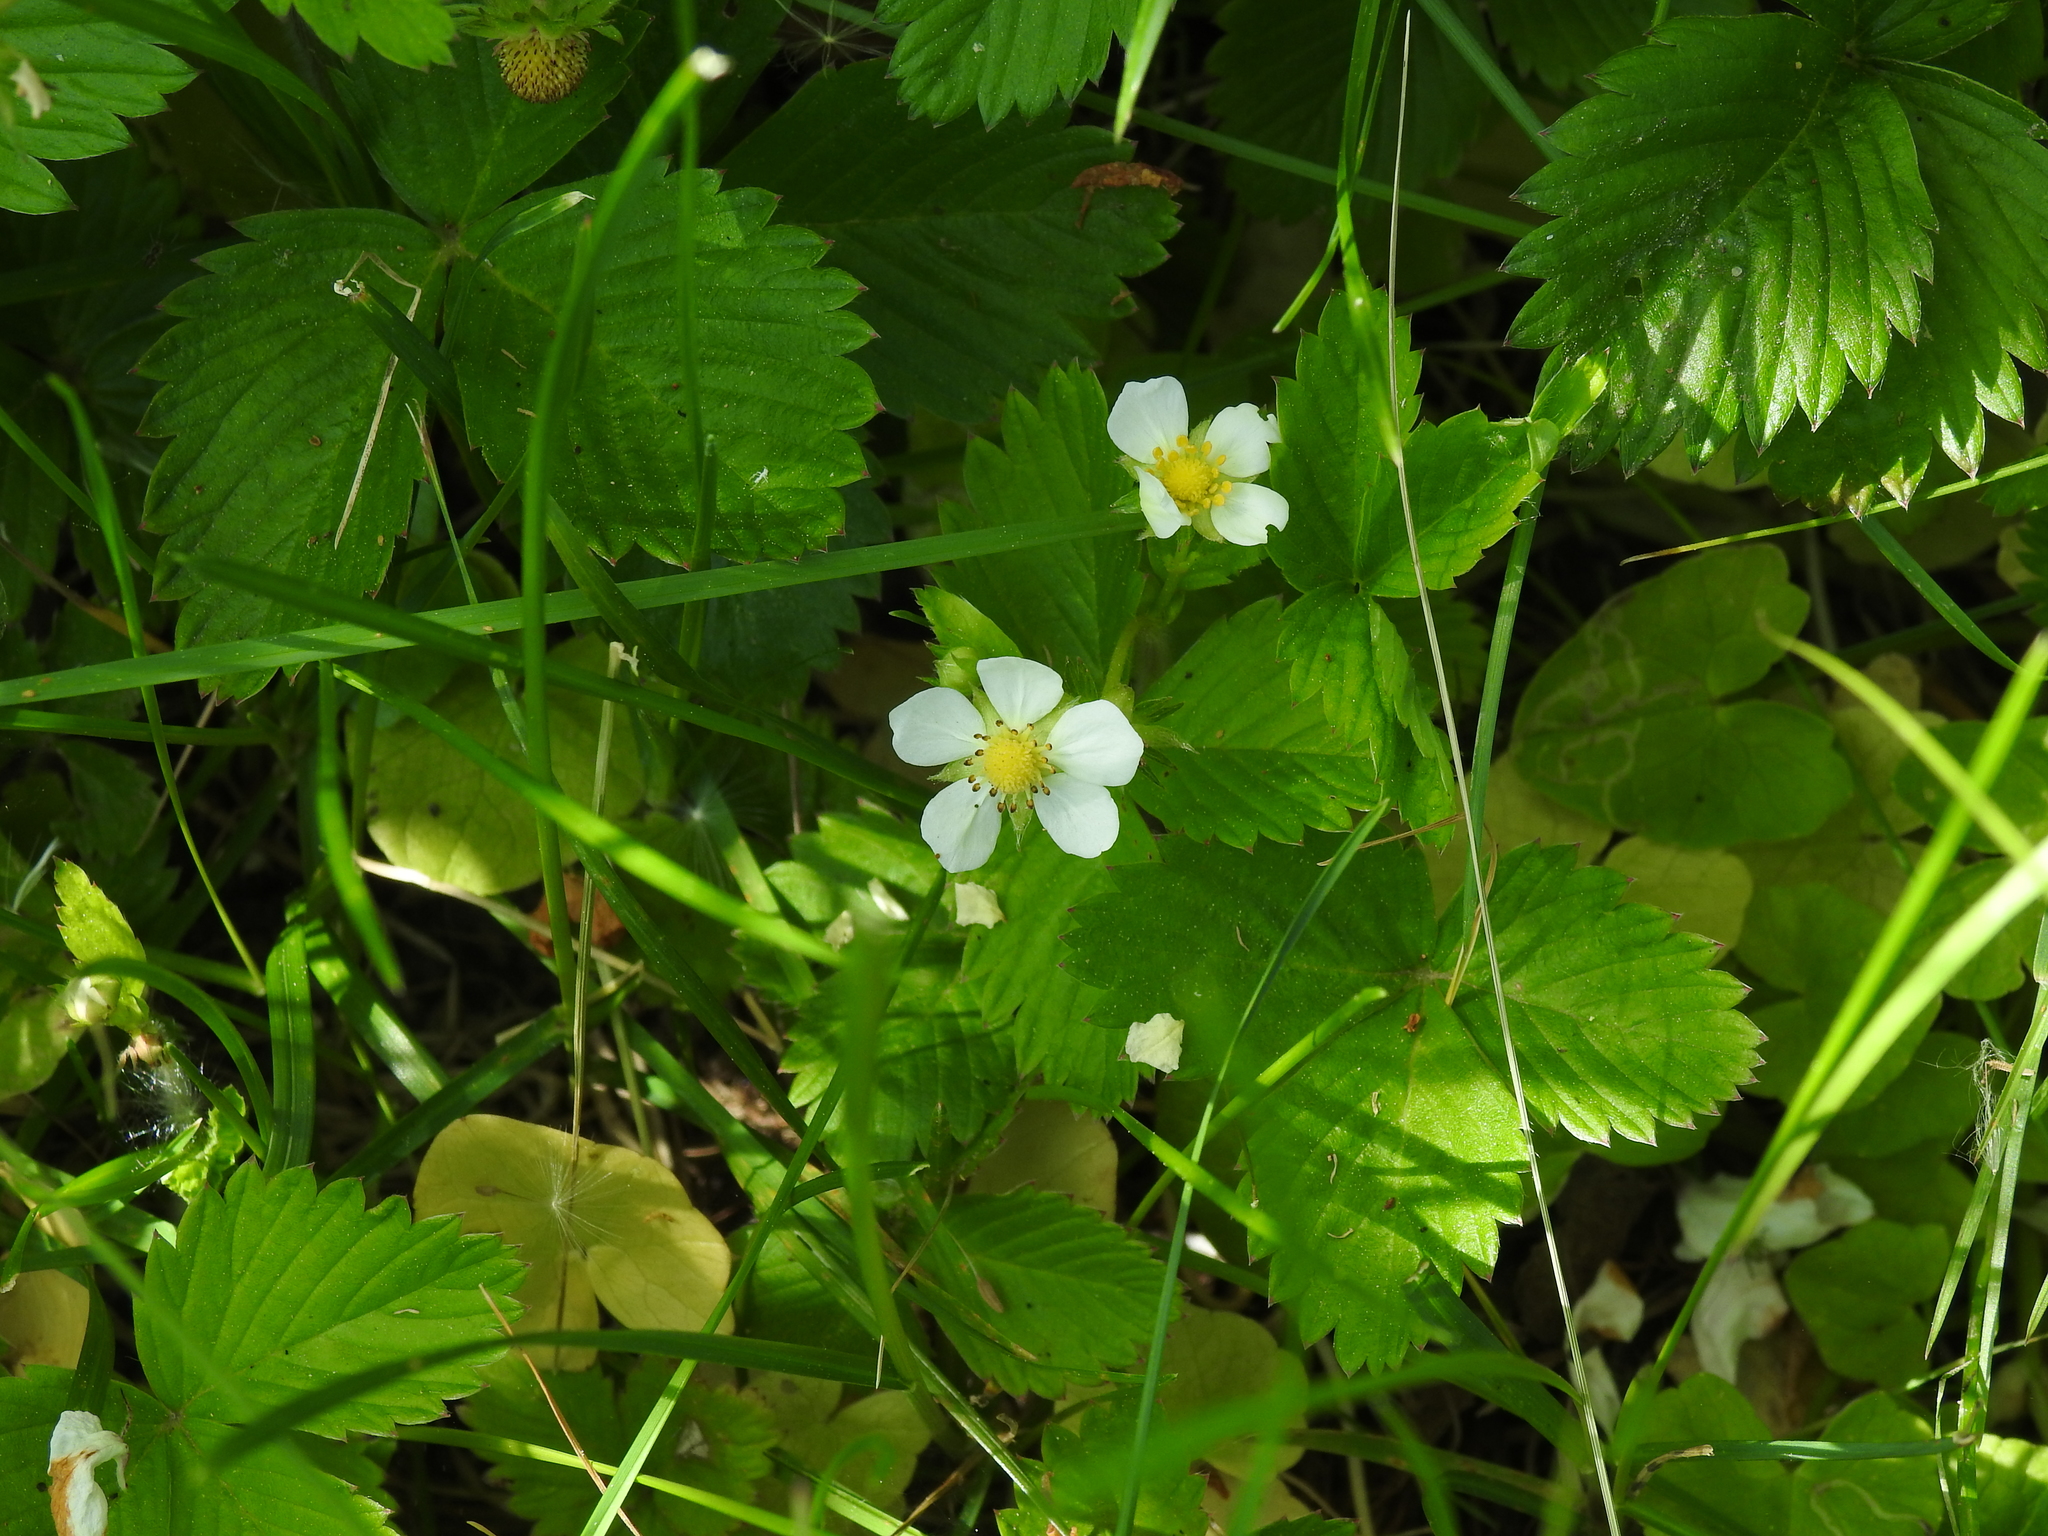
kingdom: Plantae
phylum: Tracheophyta
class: Magnoliopsida
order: Rosales
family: Rosaceae
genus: Fragaria
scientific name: Fragaria vesca
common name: Wild strawberry
